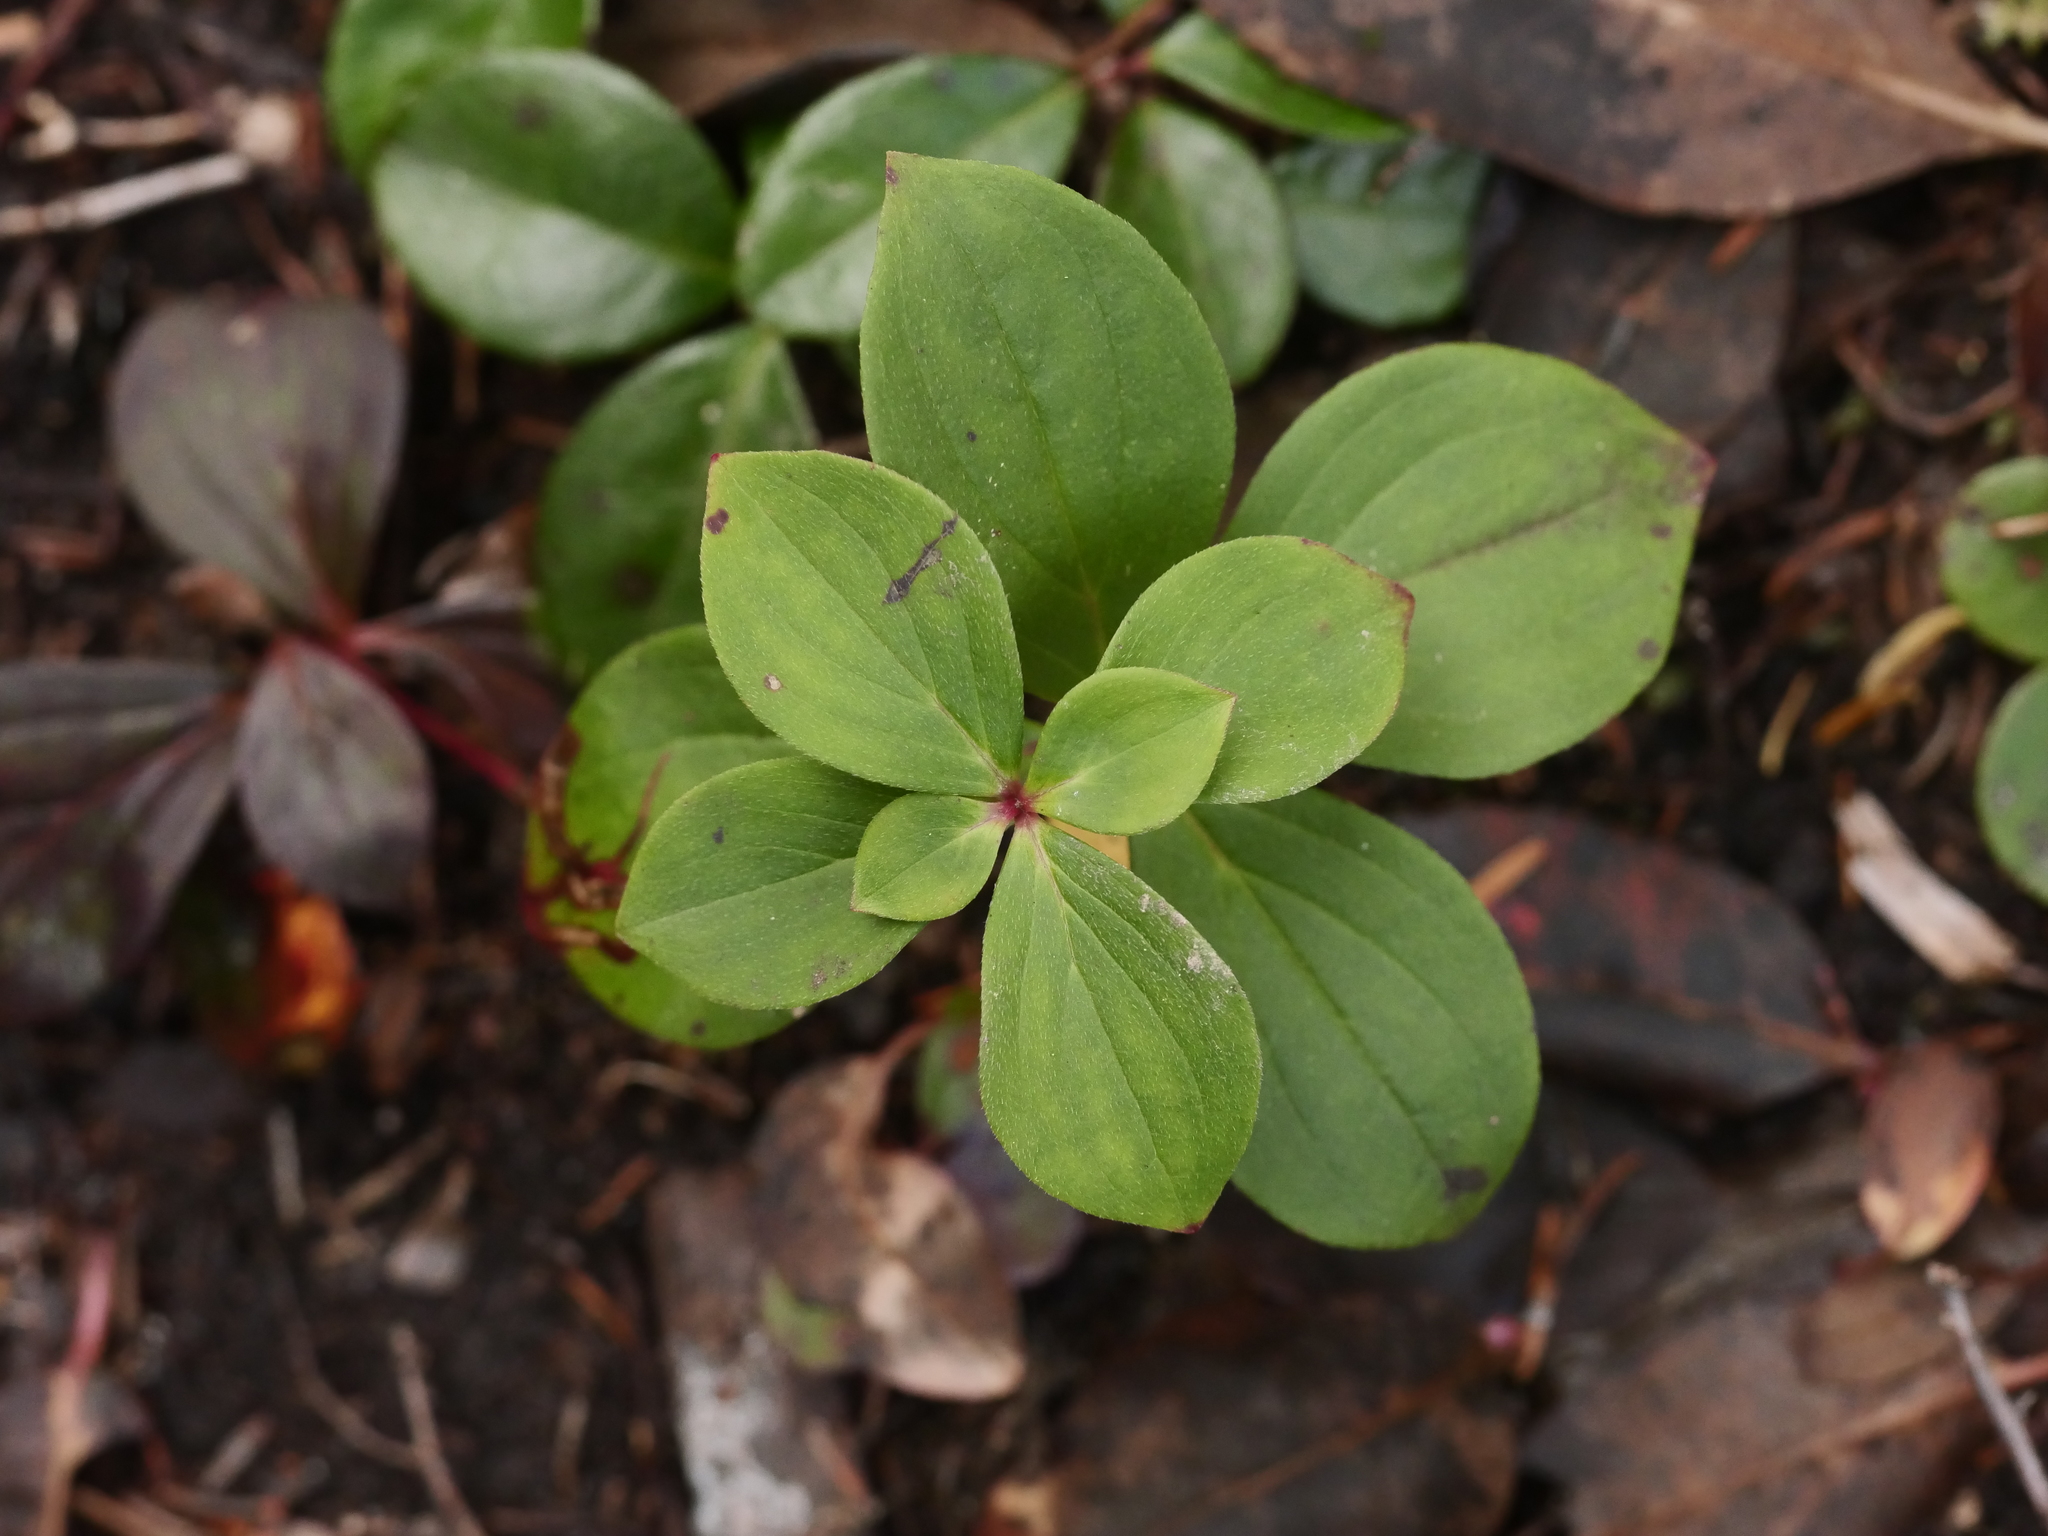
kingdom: Plantae
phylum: Tracheophyta
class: Magnoliopsida
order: Cornales
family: Cornaceae
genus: Cornus
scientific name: Cornus canadensis
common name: Creeping dogwood
